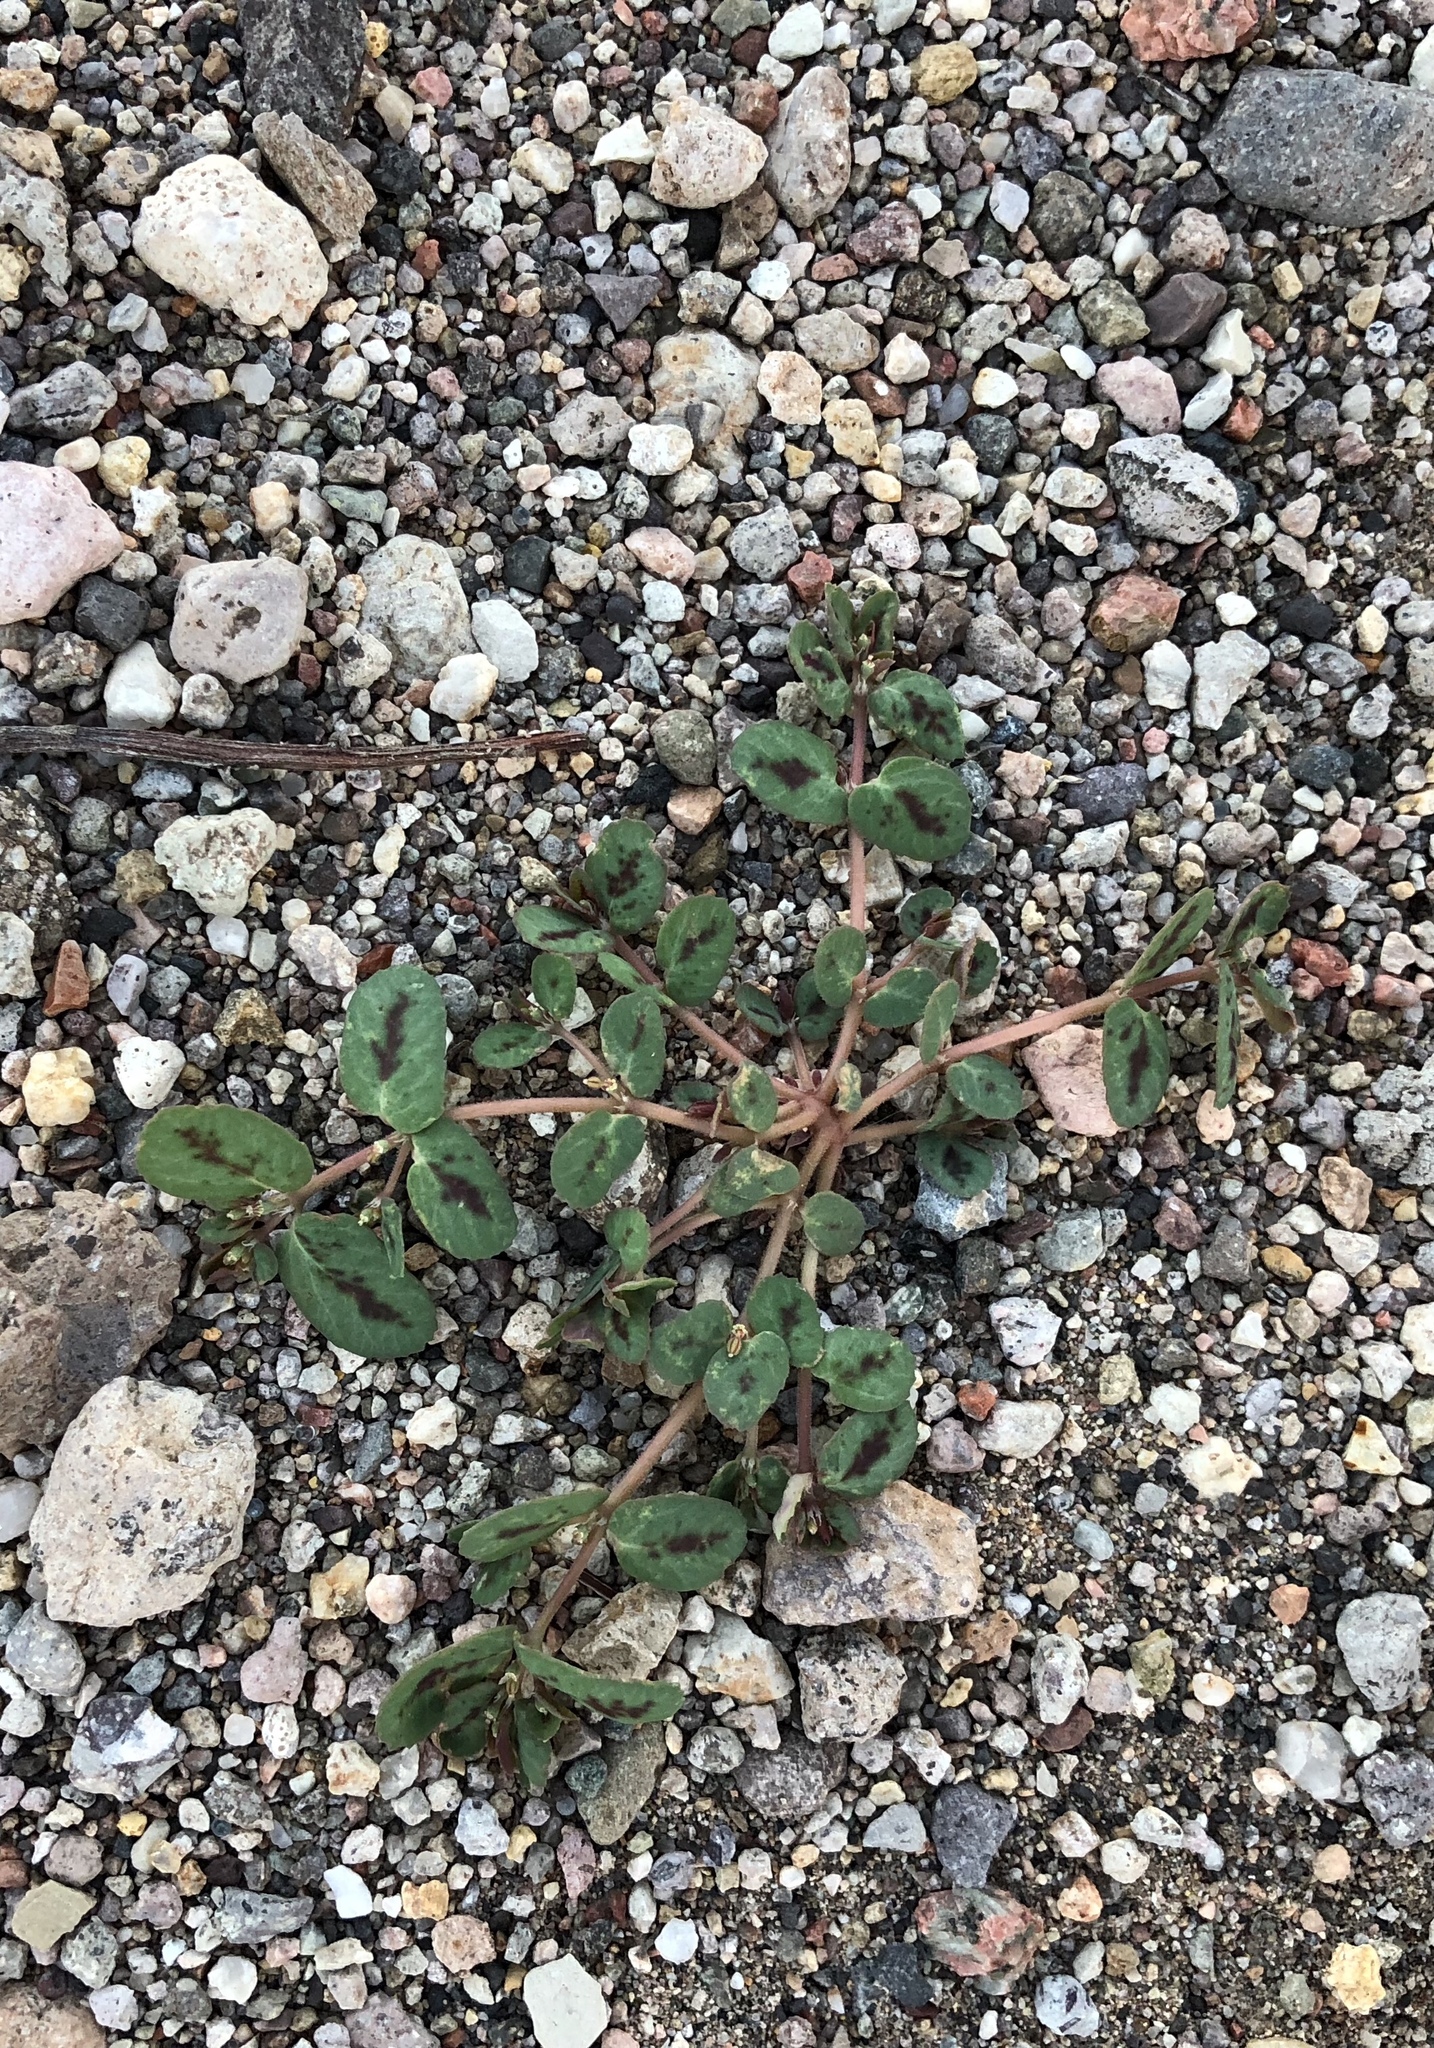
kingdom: Plantae
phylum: Tracheophyta
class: Magnoliopsida
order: Malpighiales
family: Euphorbiaceae
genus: Euphorbia
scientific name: Euphorbia abramsiana
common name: Abram's spurge
